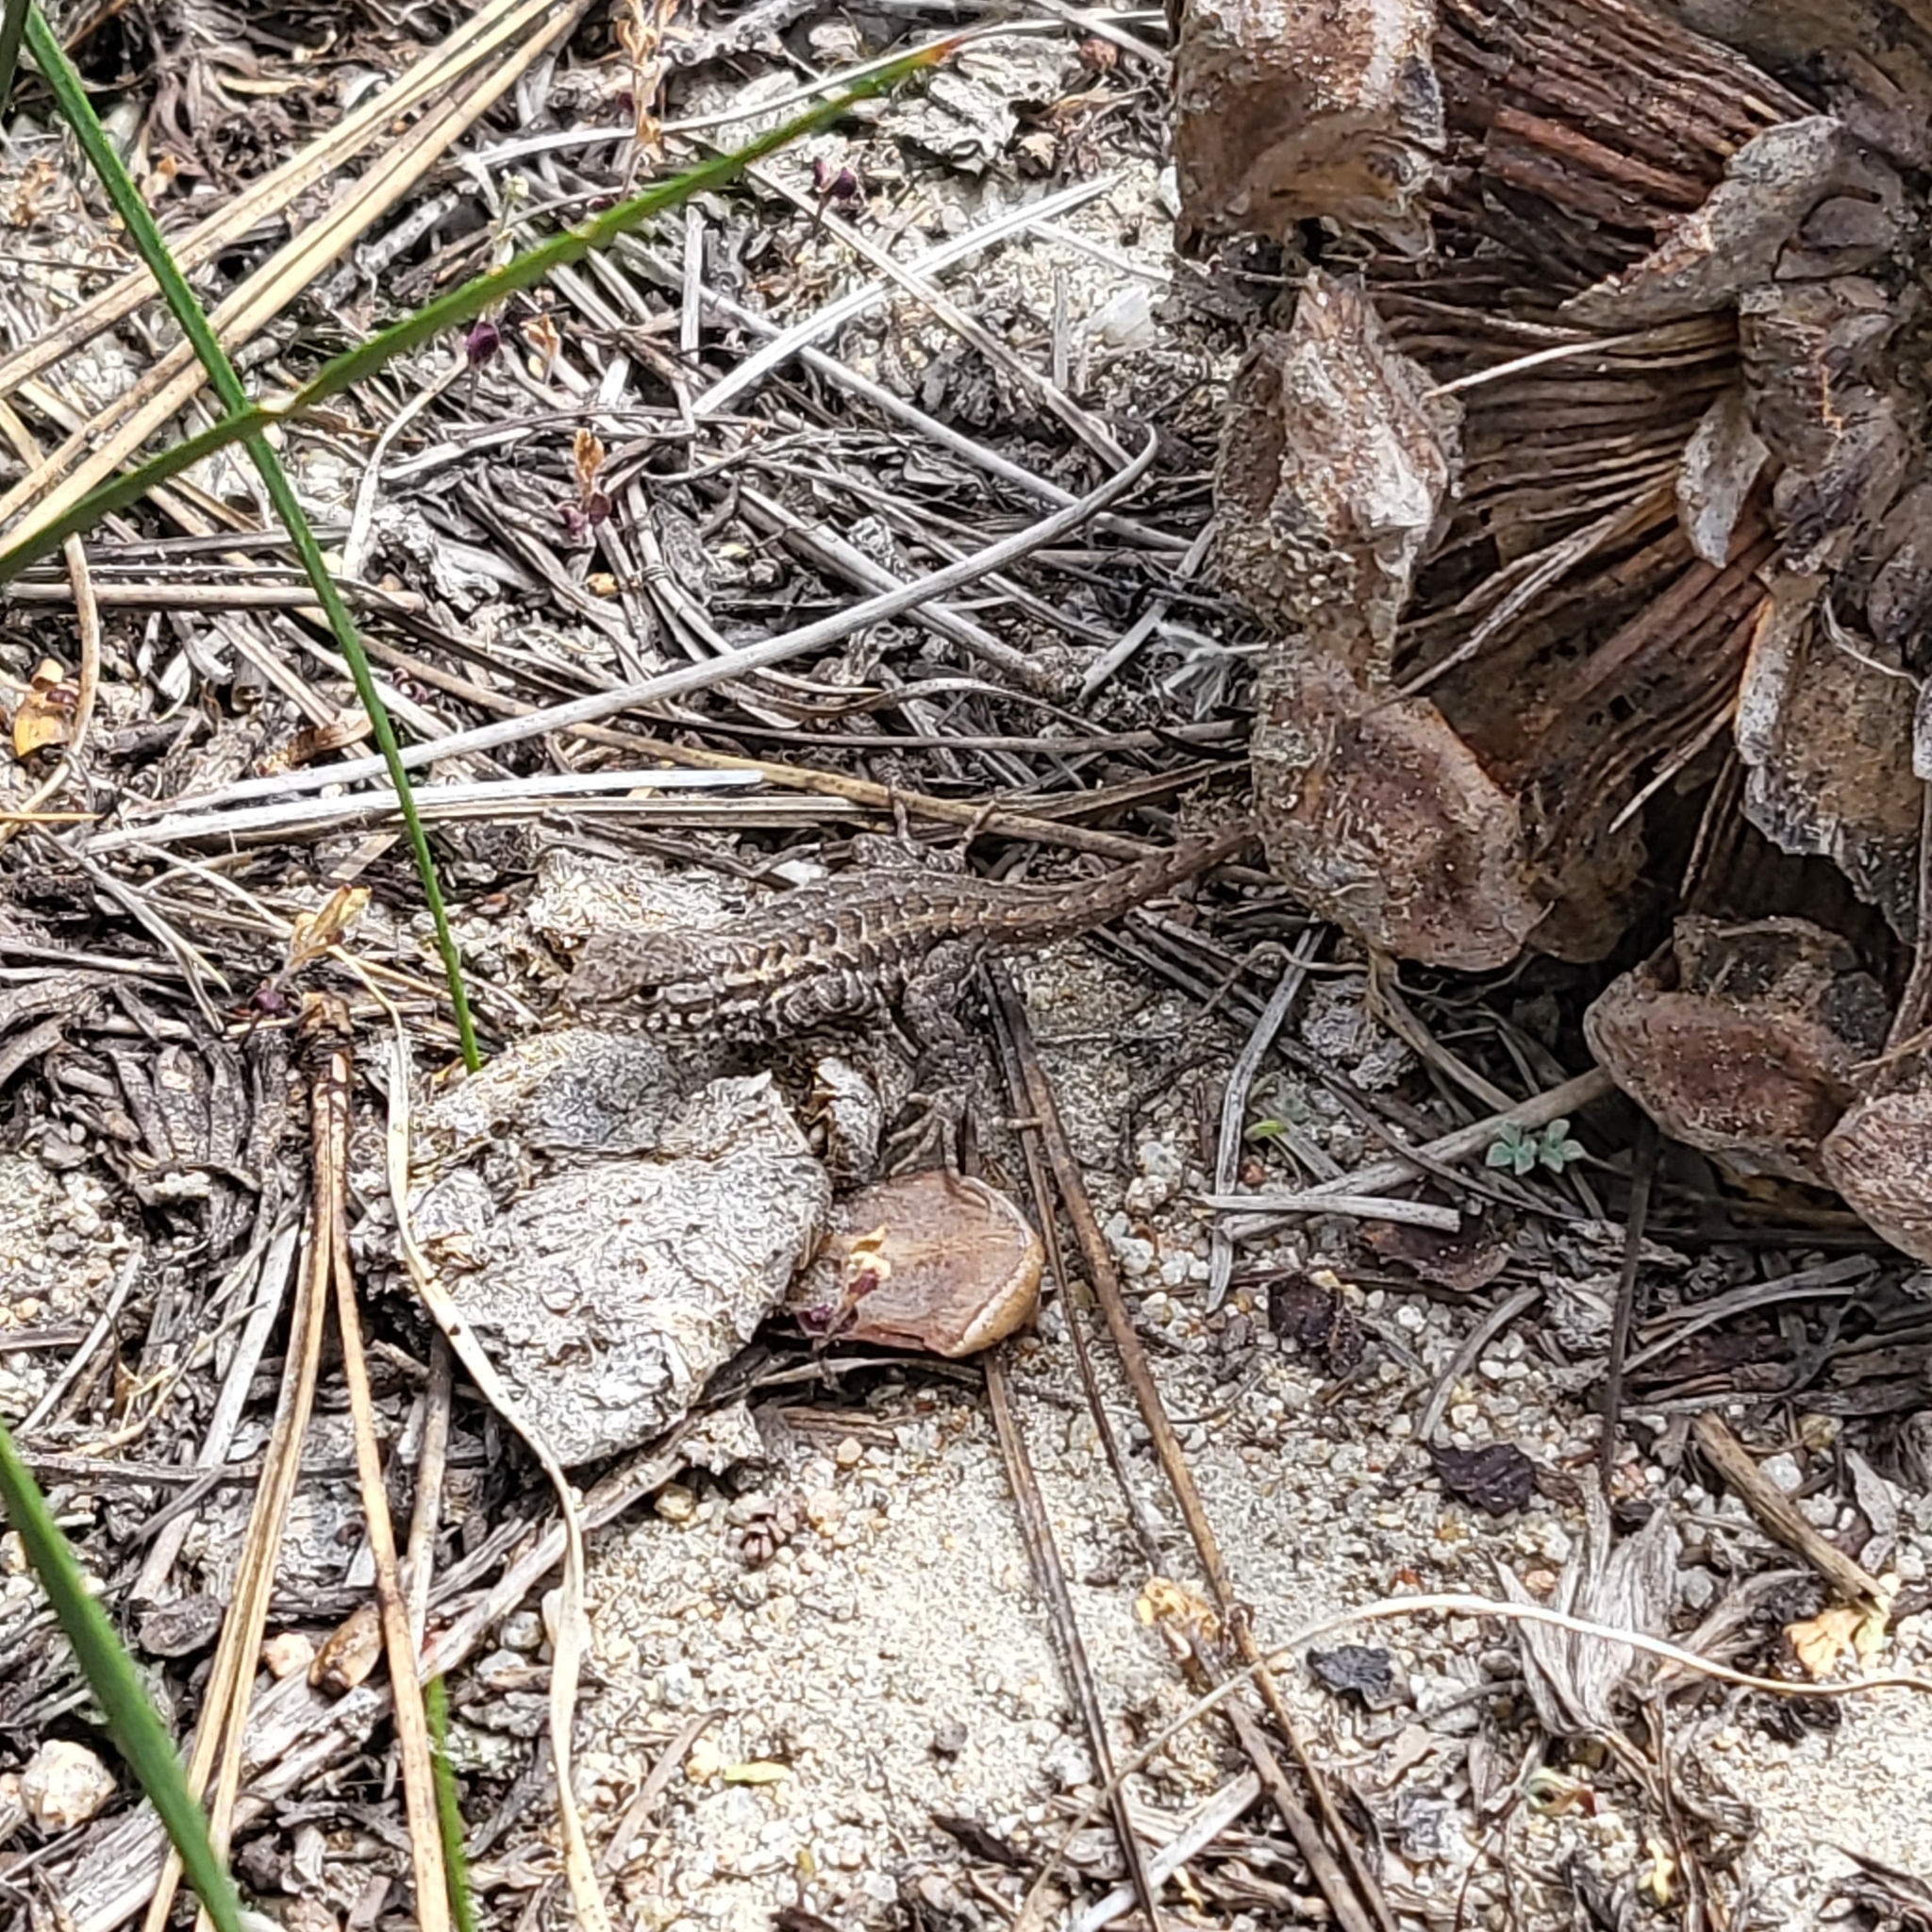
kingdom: Animalia
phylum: Chordata
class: Squamata
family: Phrynosomatidae
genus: Sceloporus
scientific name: Sceloporus graciosus
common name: Sagebrush lizard
